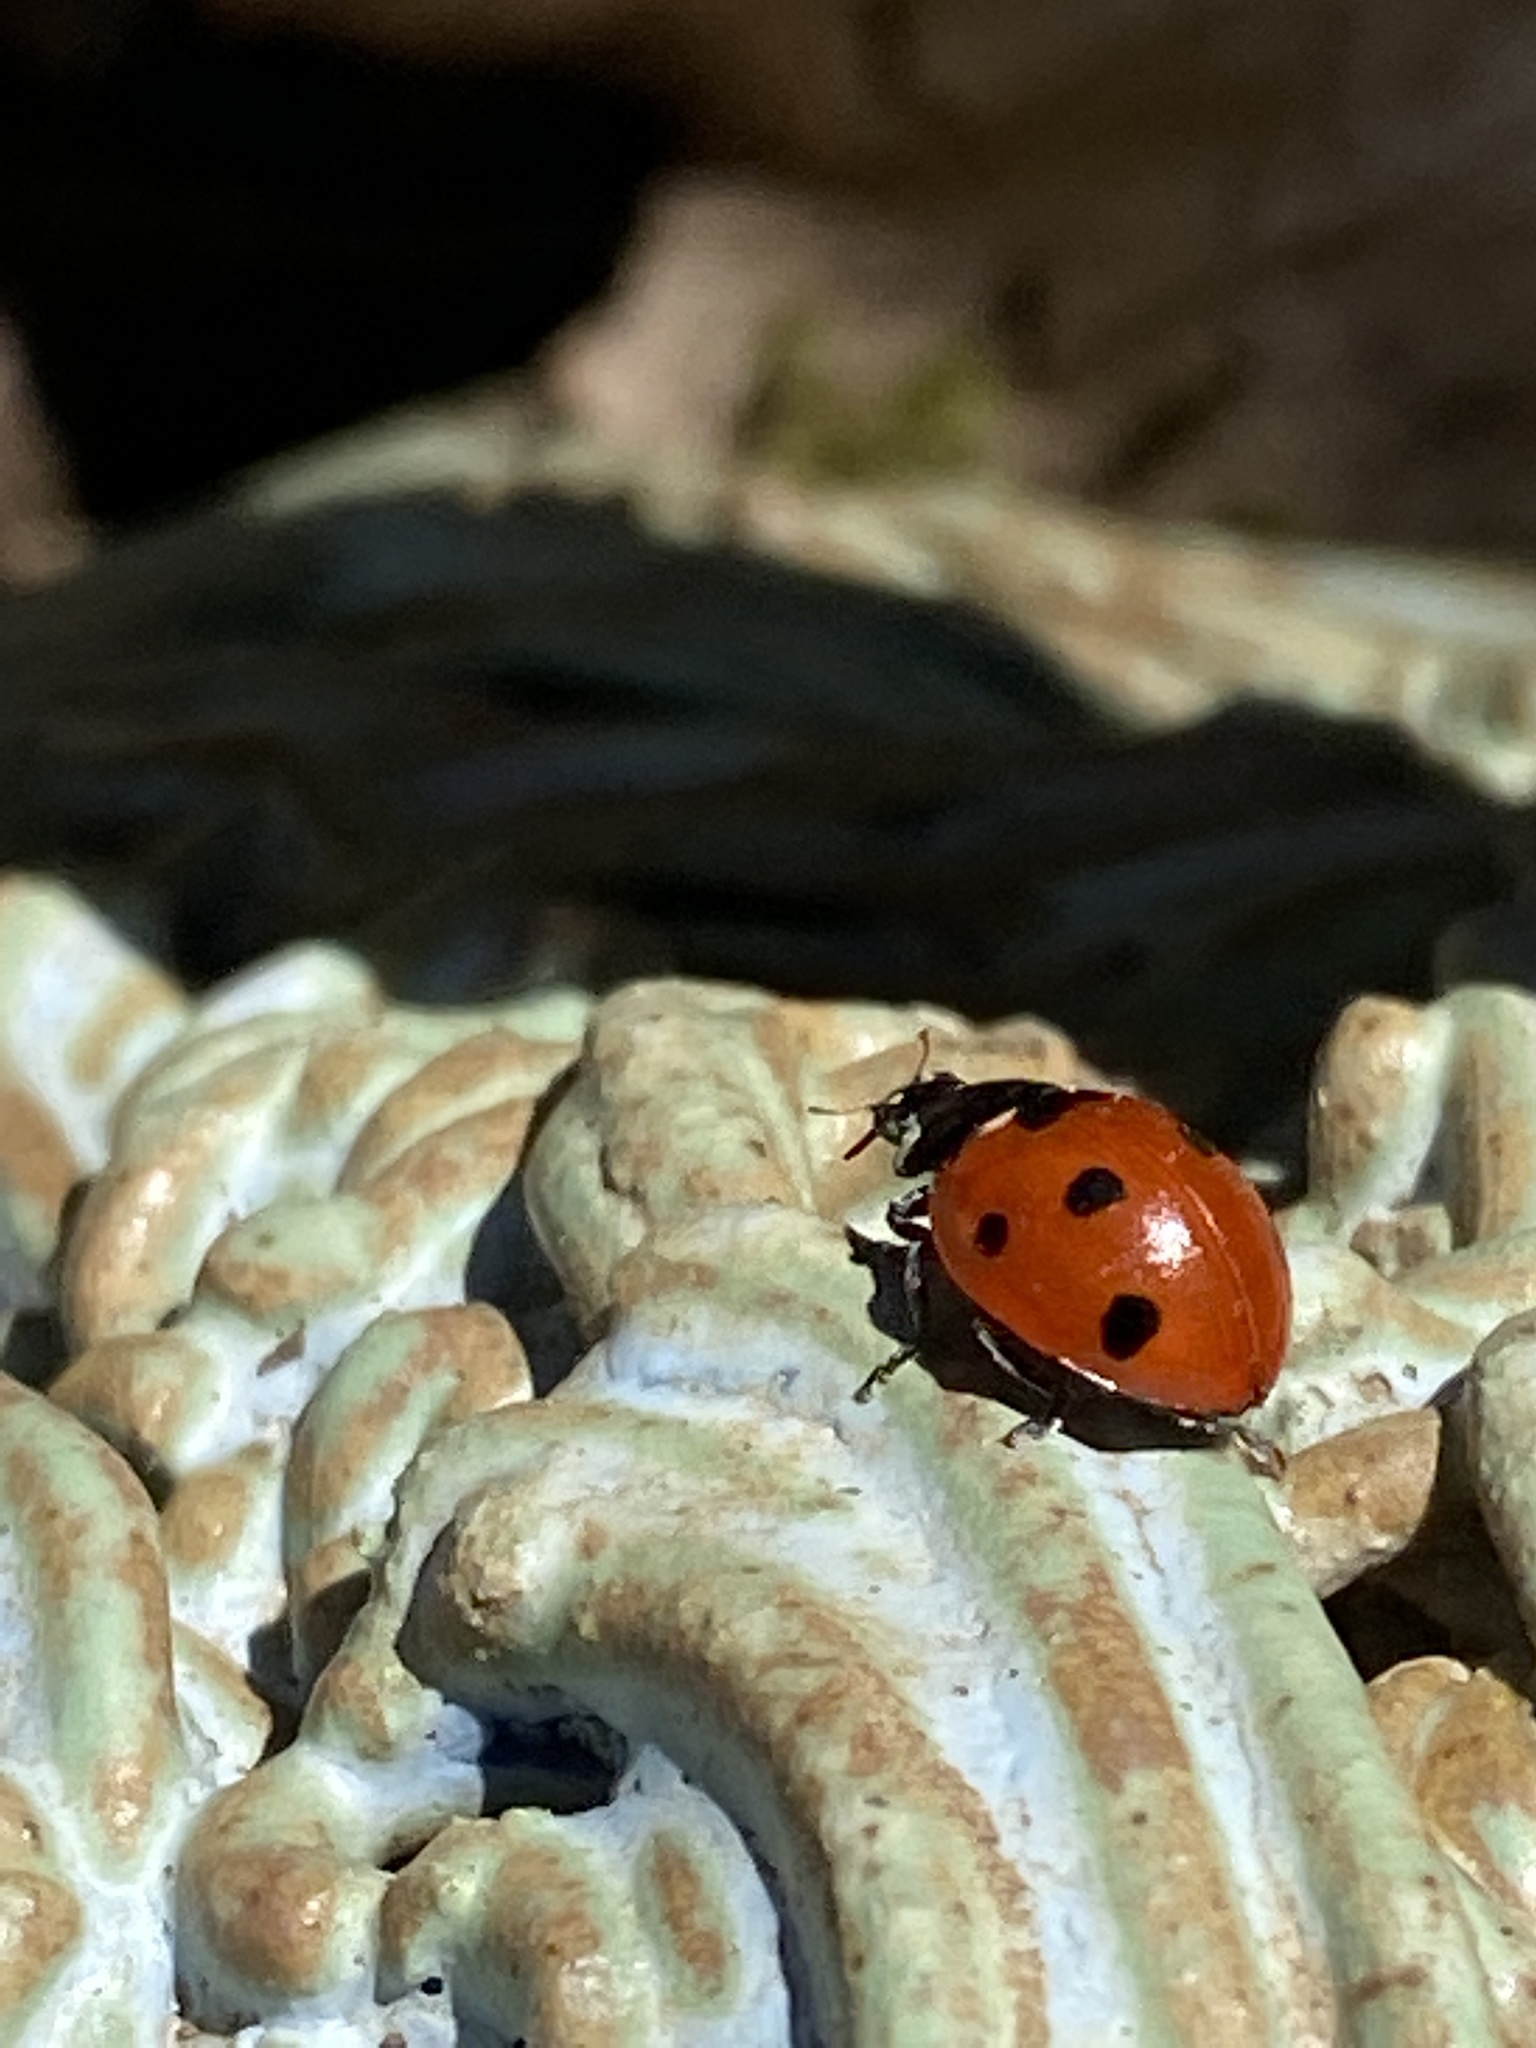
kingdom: Animalia
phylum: Arthropoda
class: Insecta
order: Coleoptera
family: Coccinellidae
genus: Coccinella
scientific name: Coccinella septempunctata
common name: Sevenspotted lady beetle
